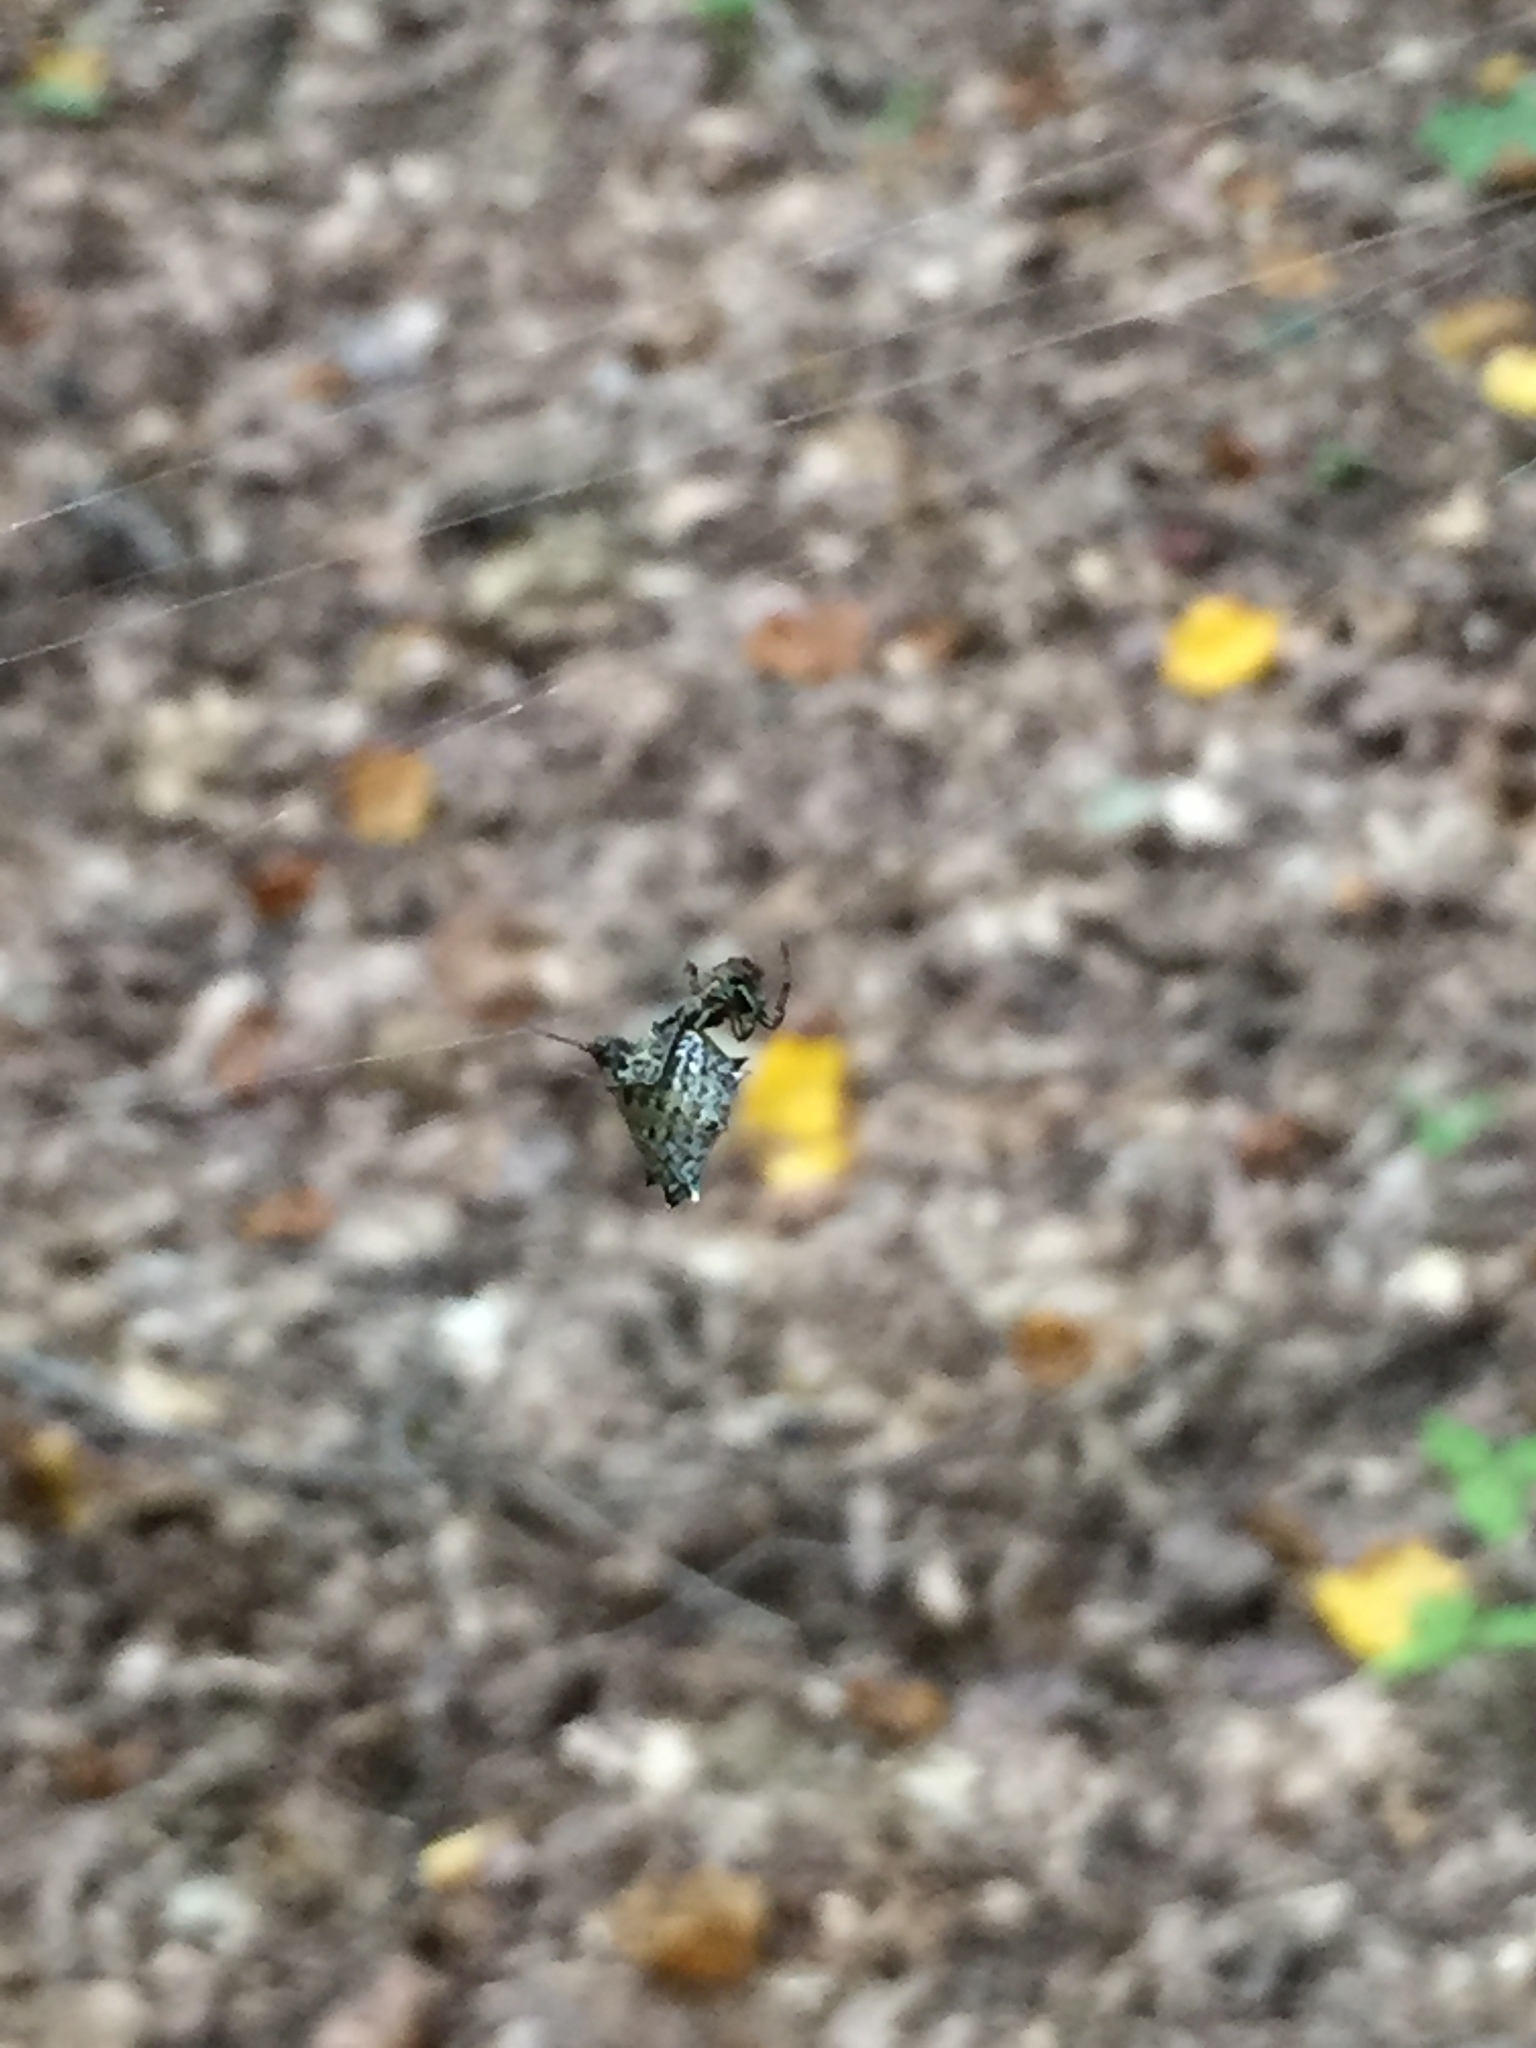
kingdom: Animalia
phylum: Arthropoda
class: Arachnida
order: Araneae
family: Araneidae
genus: Micrathena
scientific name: Micrathena gracilis
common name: Orb weavers
